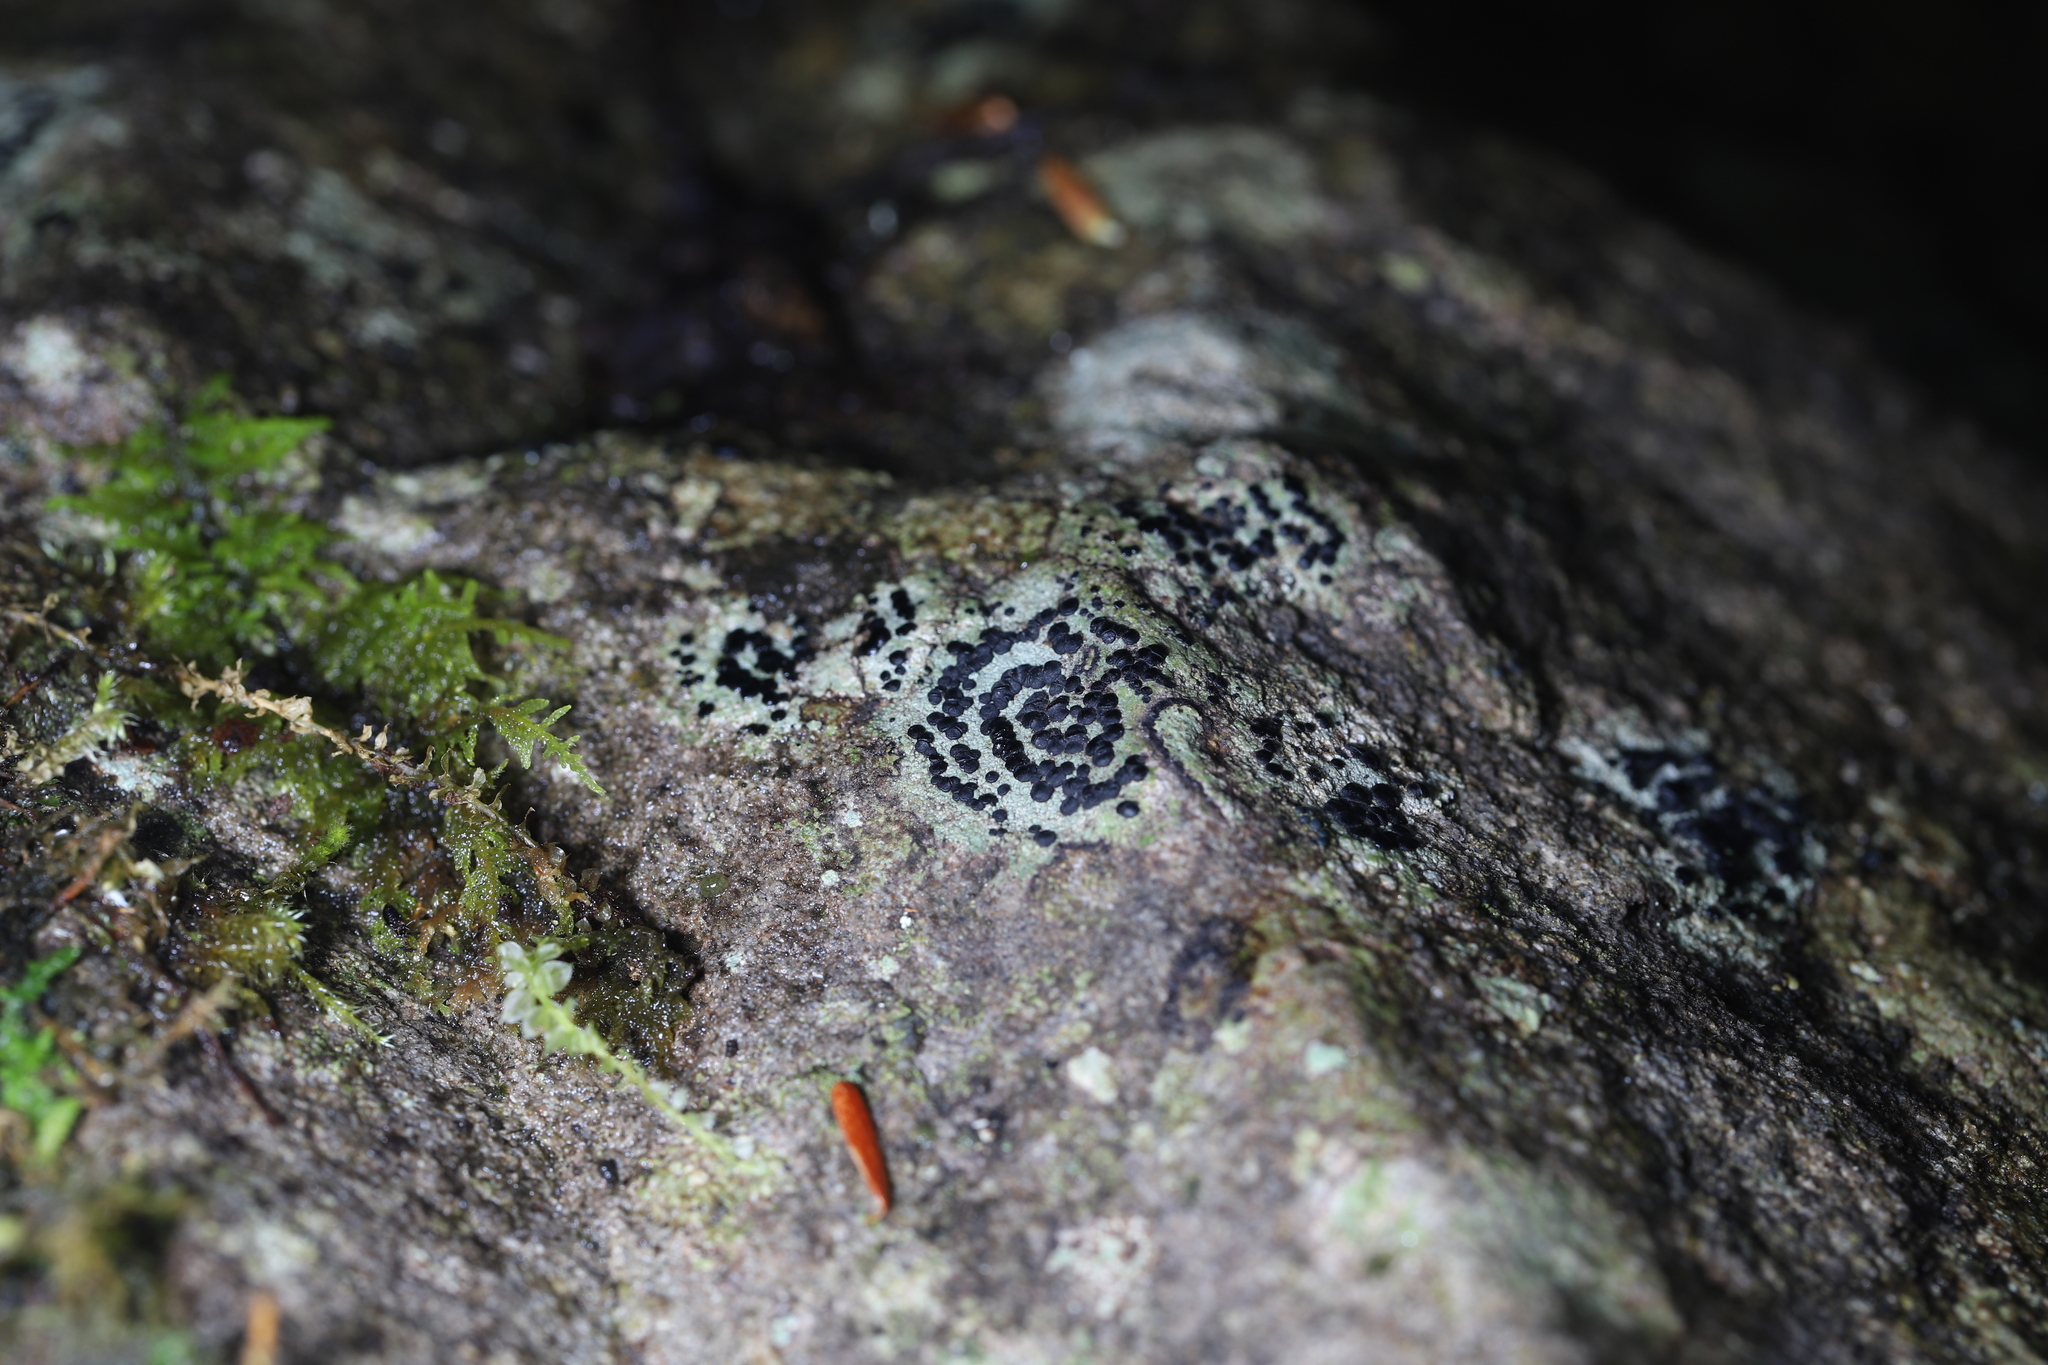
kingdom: Fungi
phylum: Ascomycota
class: Lecanoromycetes
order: Lecideales
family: Lecideaceae
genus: Porpidia
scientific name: Porpidia crustulata
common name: Concentric boulder lichen
